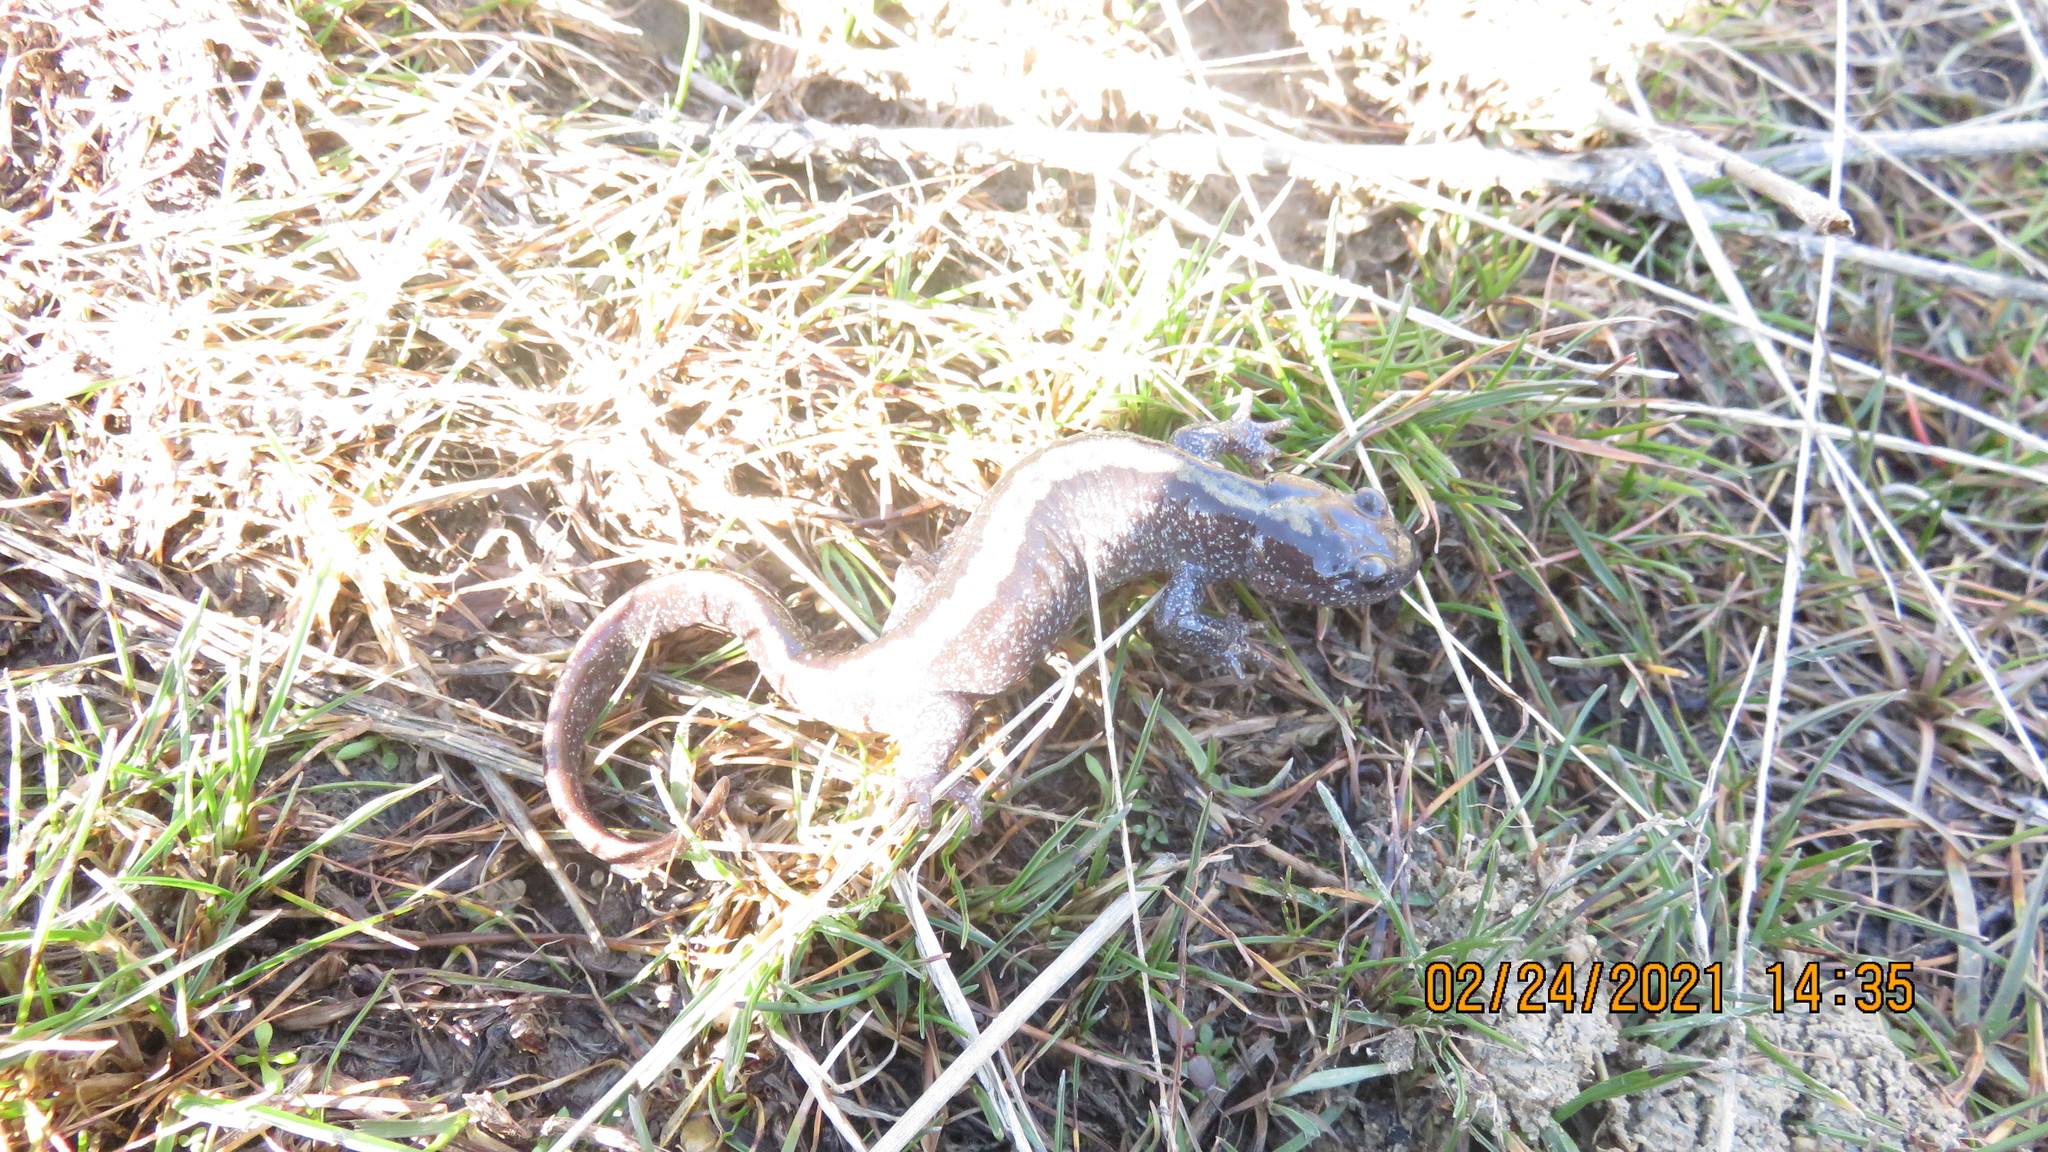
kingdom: Animalia
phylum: Chordata
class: Amphibia
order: Caudata
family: Ambystomatidae
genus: Ambystoma
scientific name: Ambystoma macrodactylum
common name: Long-toed salamander
